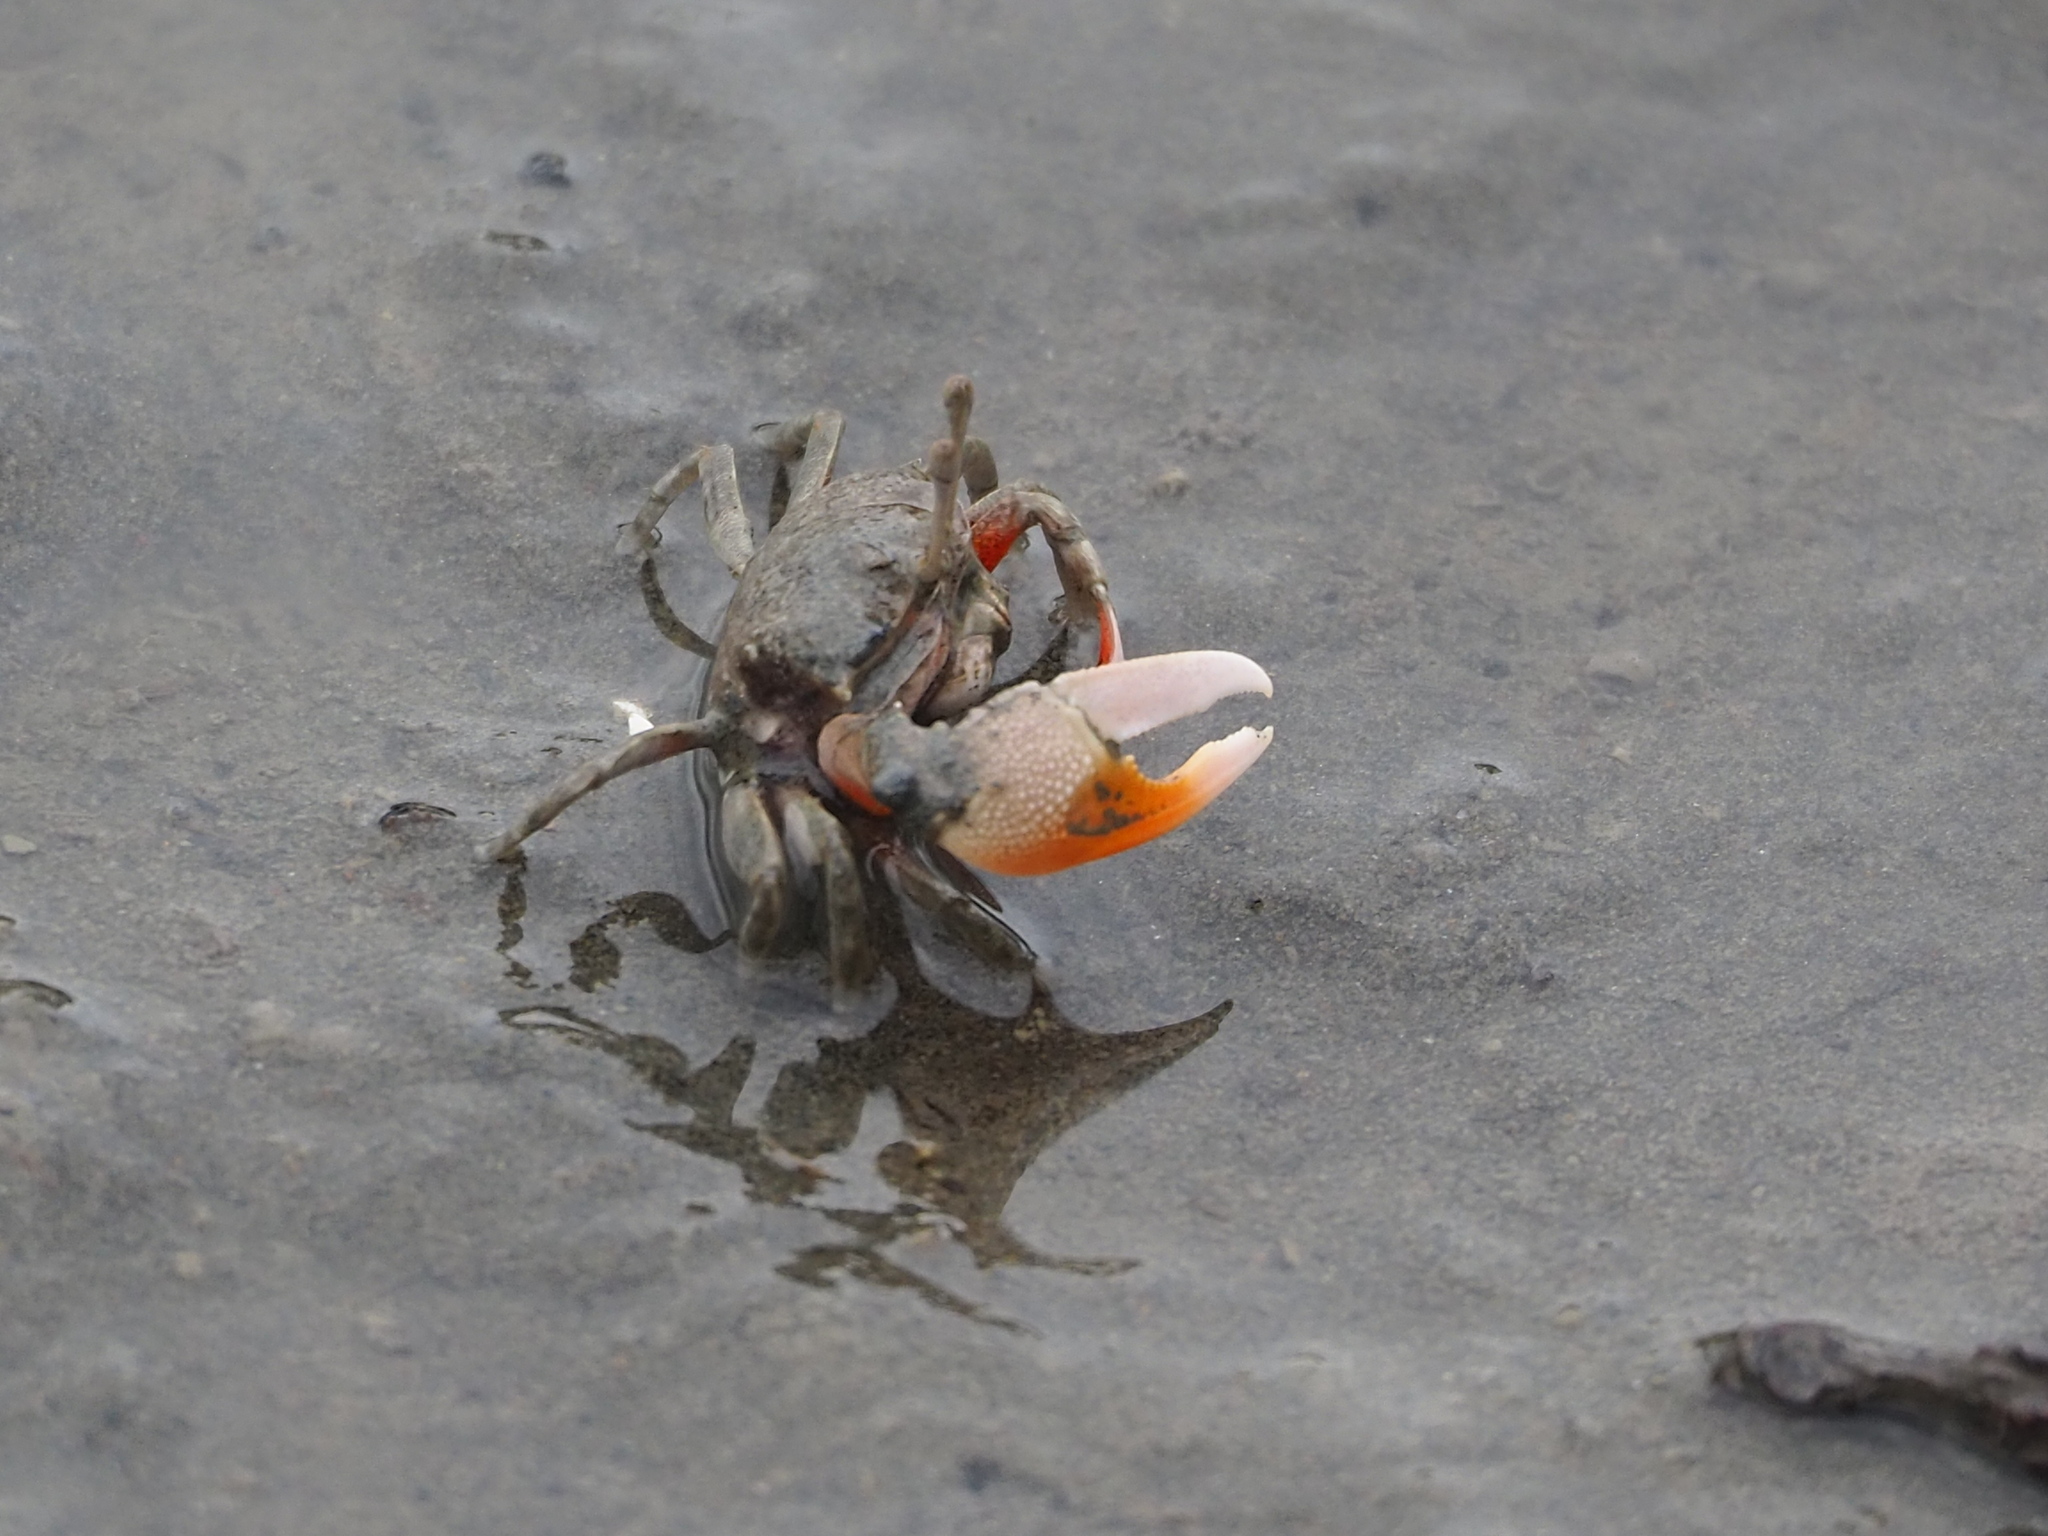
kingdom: Animalia
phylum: Arthropoda
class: Malacostraca
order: Decapoda
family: Ocypodidae
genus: Gelasimus
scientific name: Gelasimus borealis
